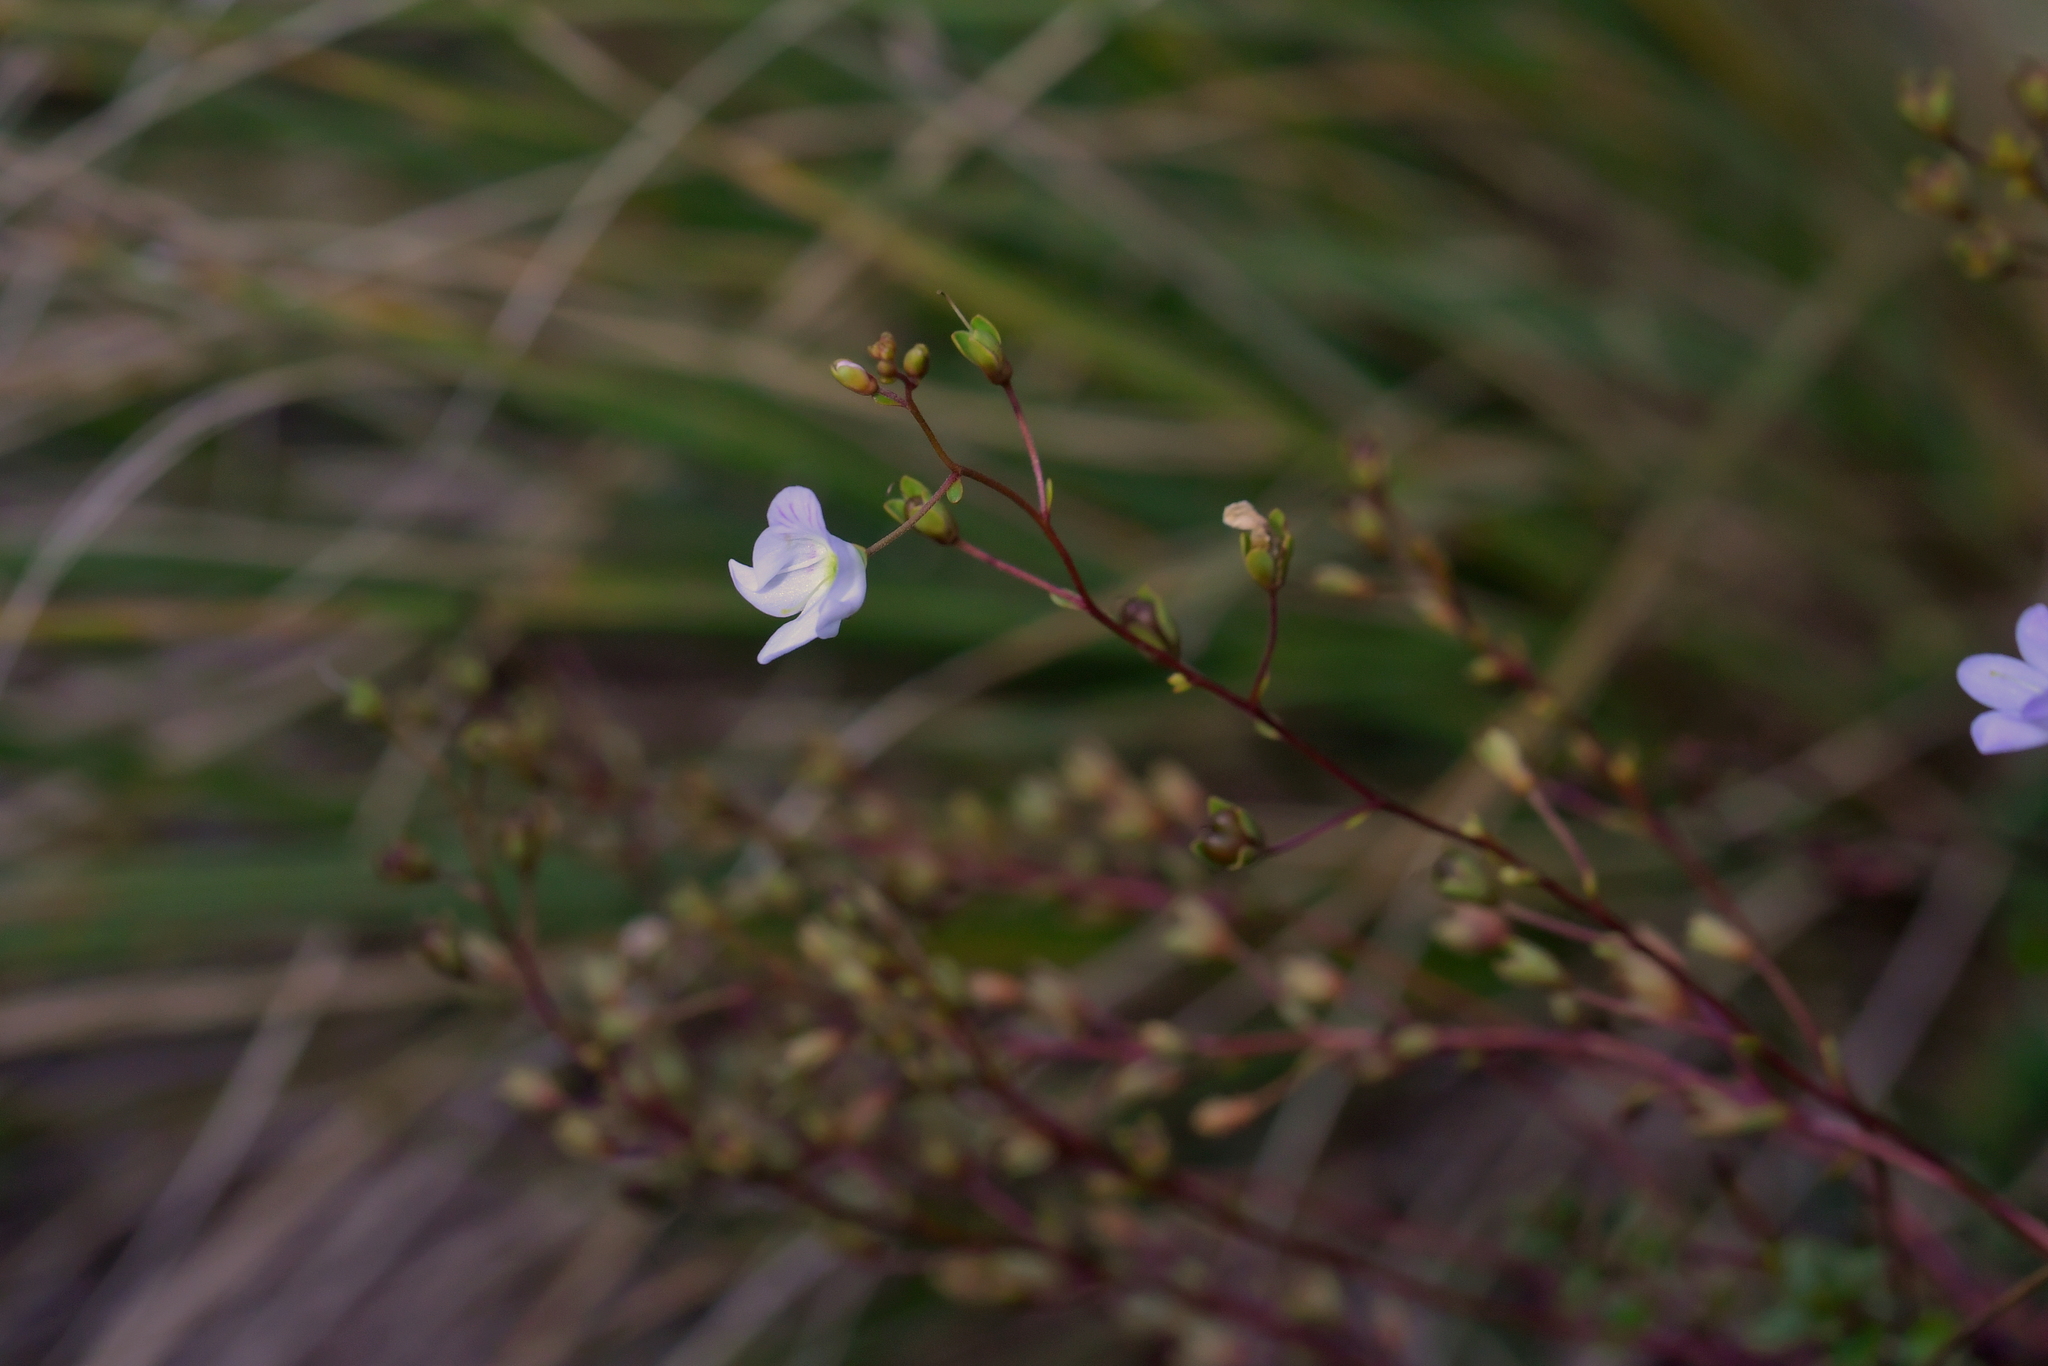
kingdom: Plantae
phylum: Tracheophyta
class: Magnoliopsida
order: Lamiales
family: Plantaginaceae
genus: Veronica
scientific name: Veronica lyallii
